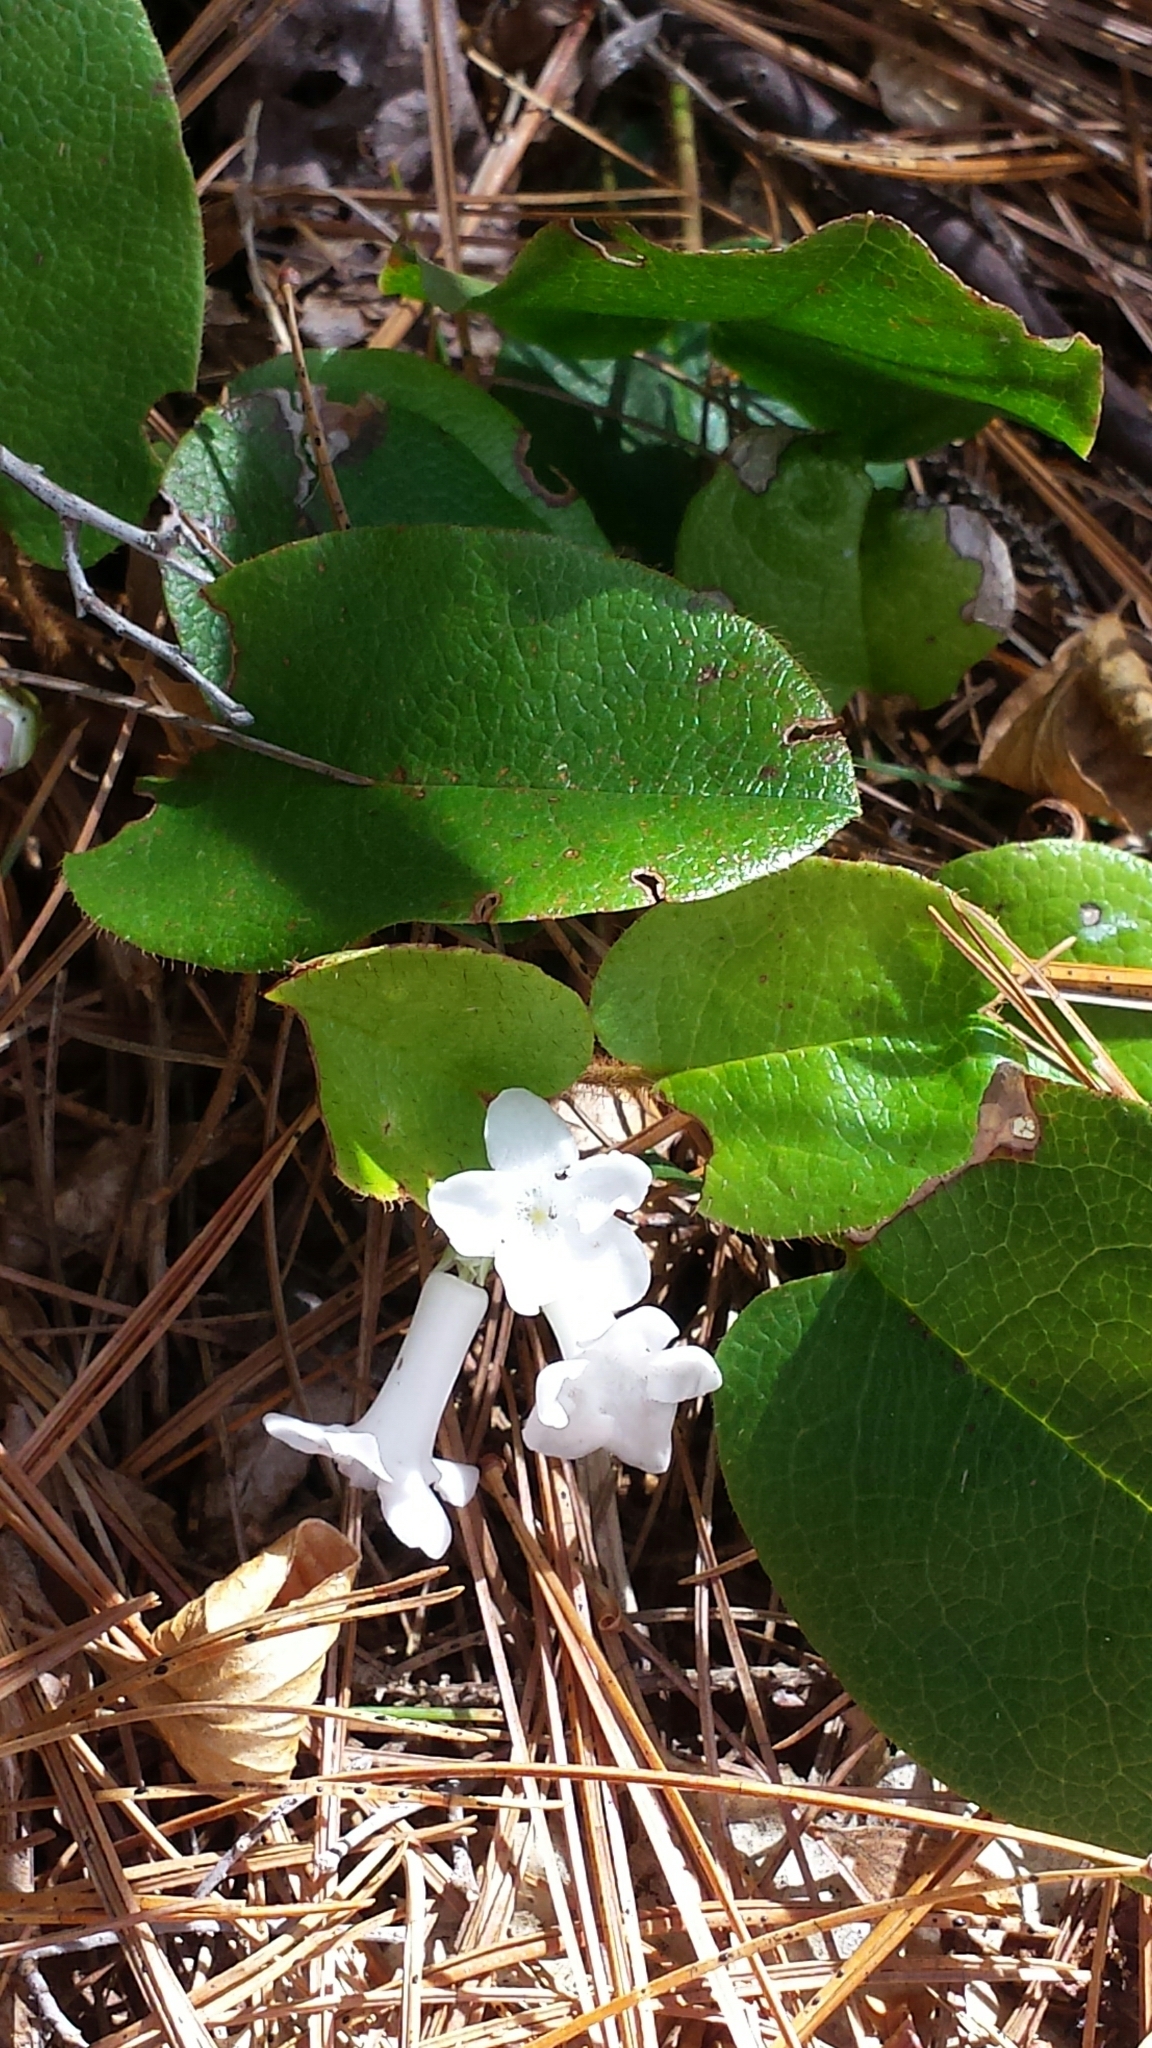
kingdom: Plantae
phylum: Tracheophyta
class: Magnoliopsida
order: Ericales
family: Ericaceae
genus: Epigaea
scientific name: Epigaea repens
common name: Gravelroot
